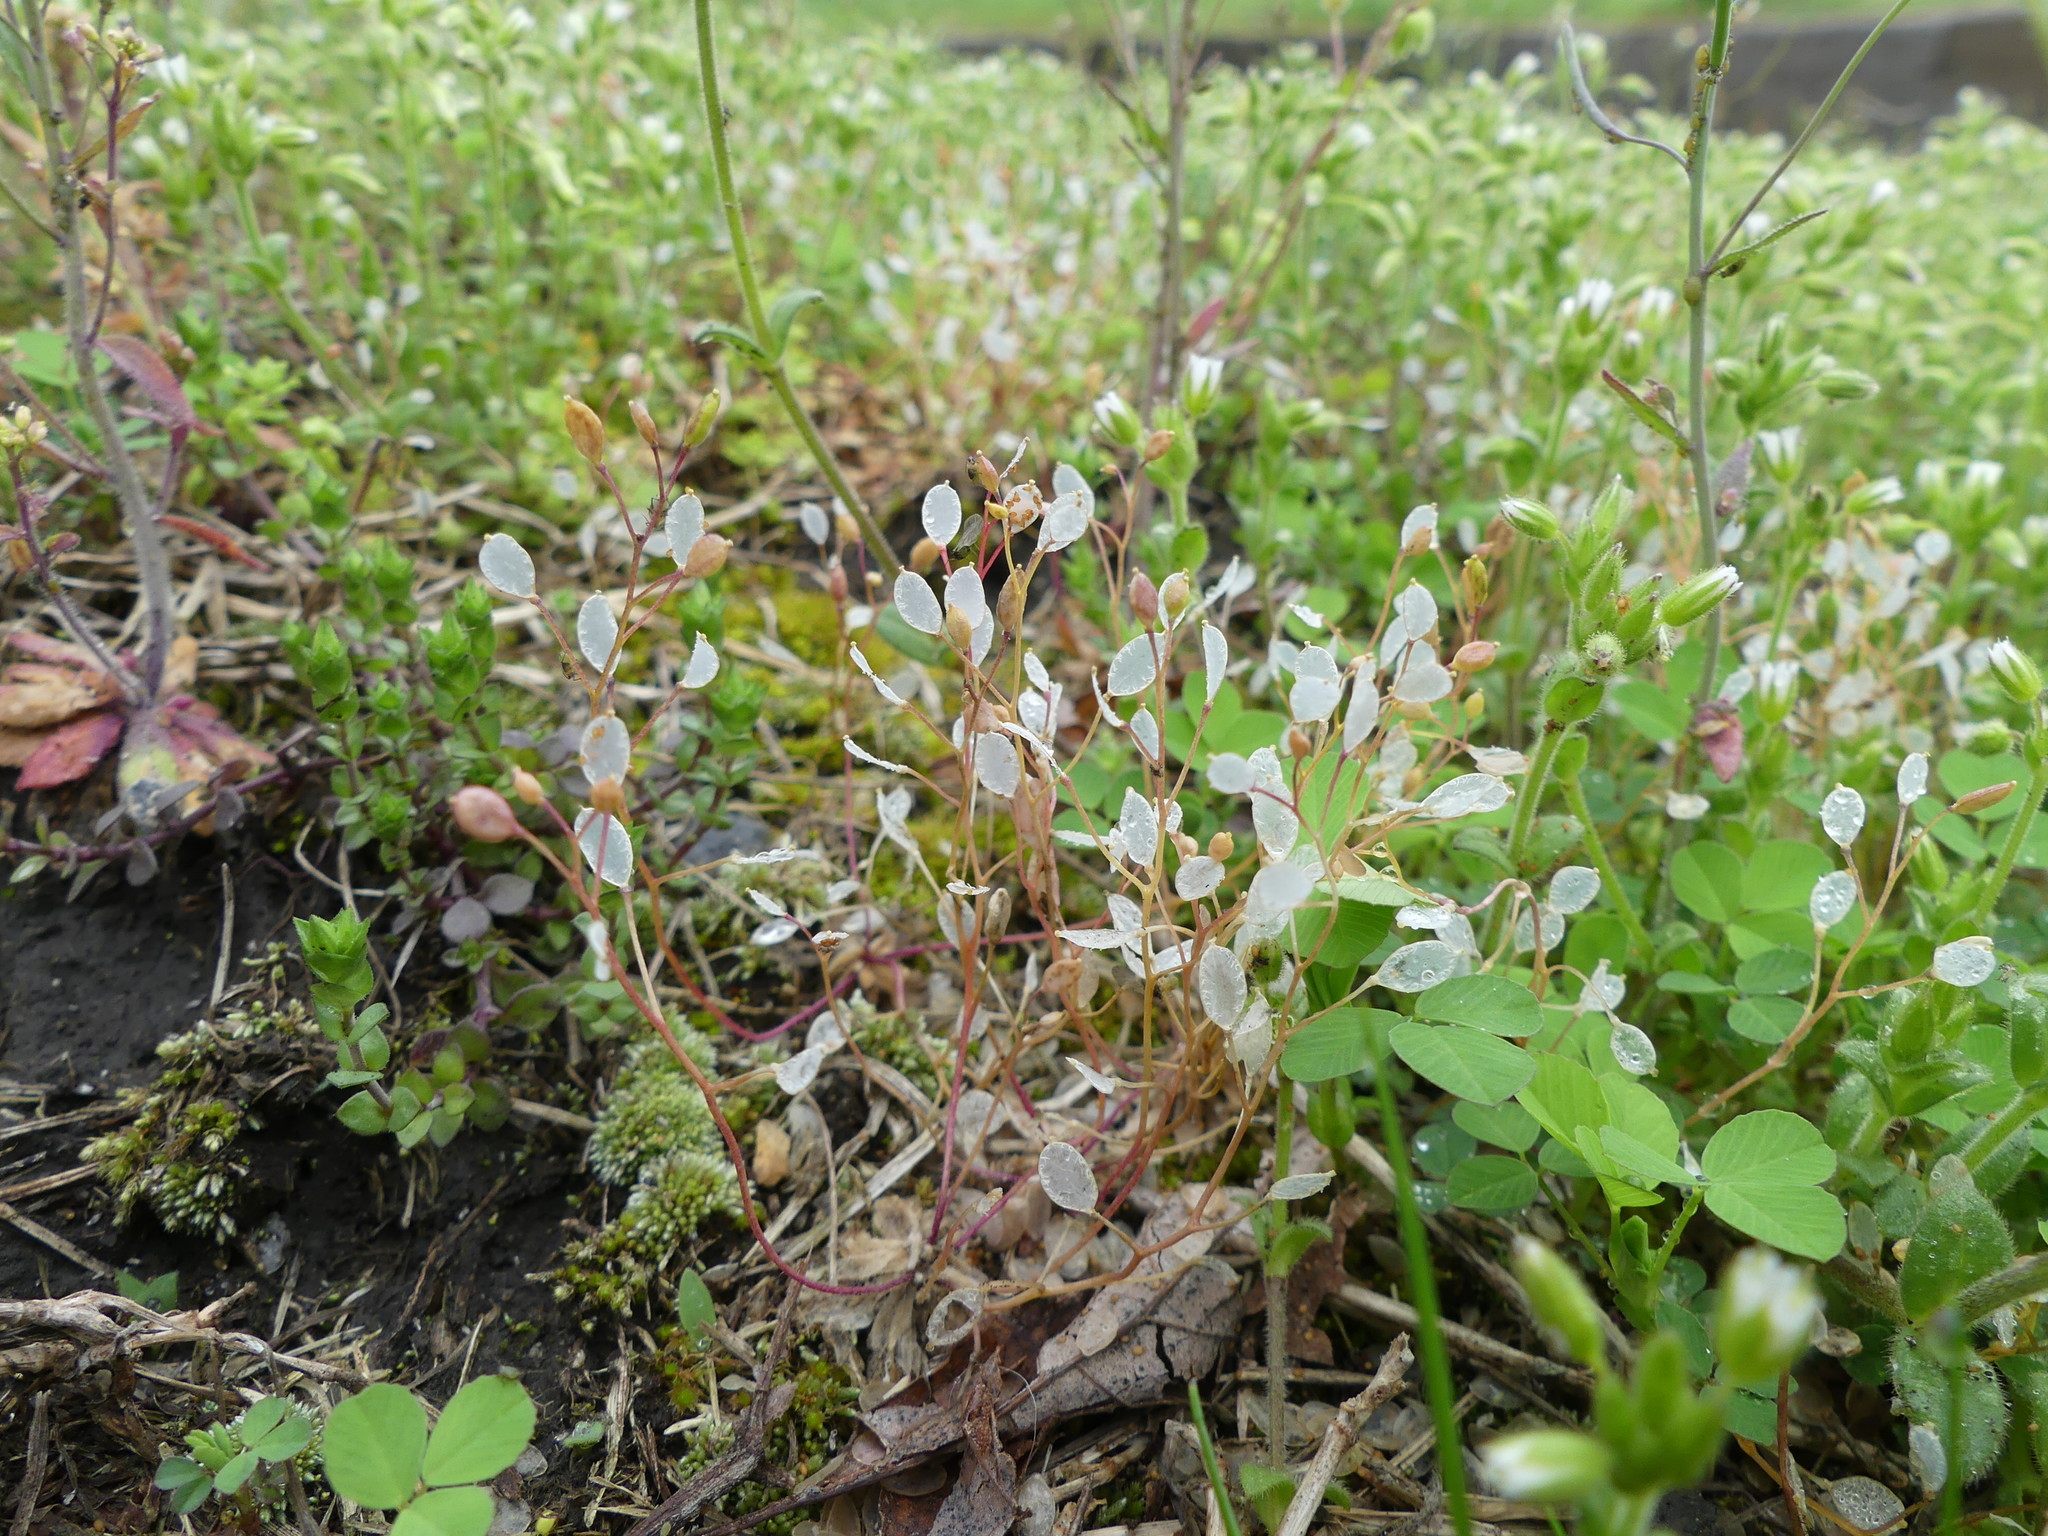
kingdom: Plantae
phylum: Tracheophyta
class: Magnoliopsida
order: Brassicales
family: Brassicaceae
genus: Draba
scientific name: Draba verna
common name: Spring draba
